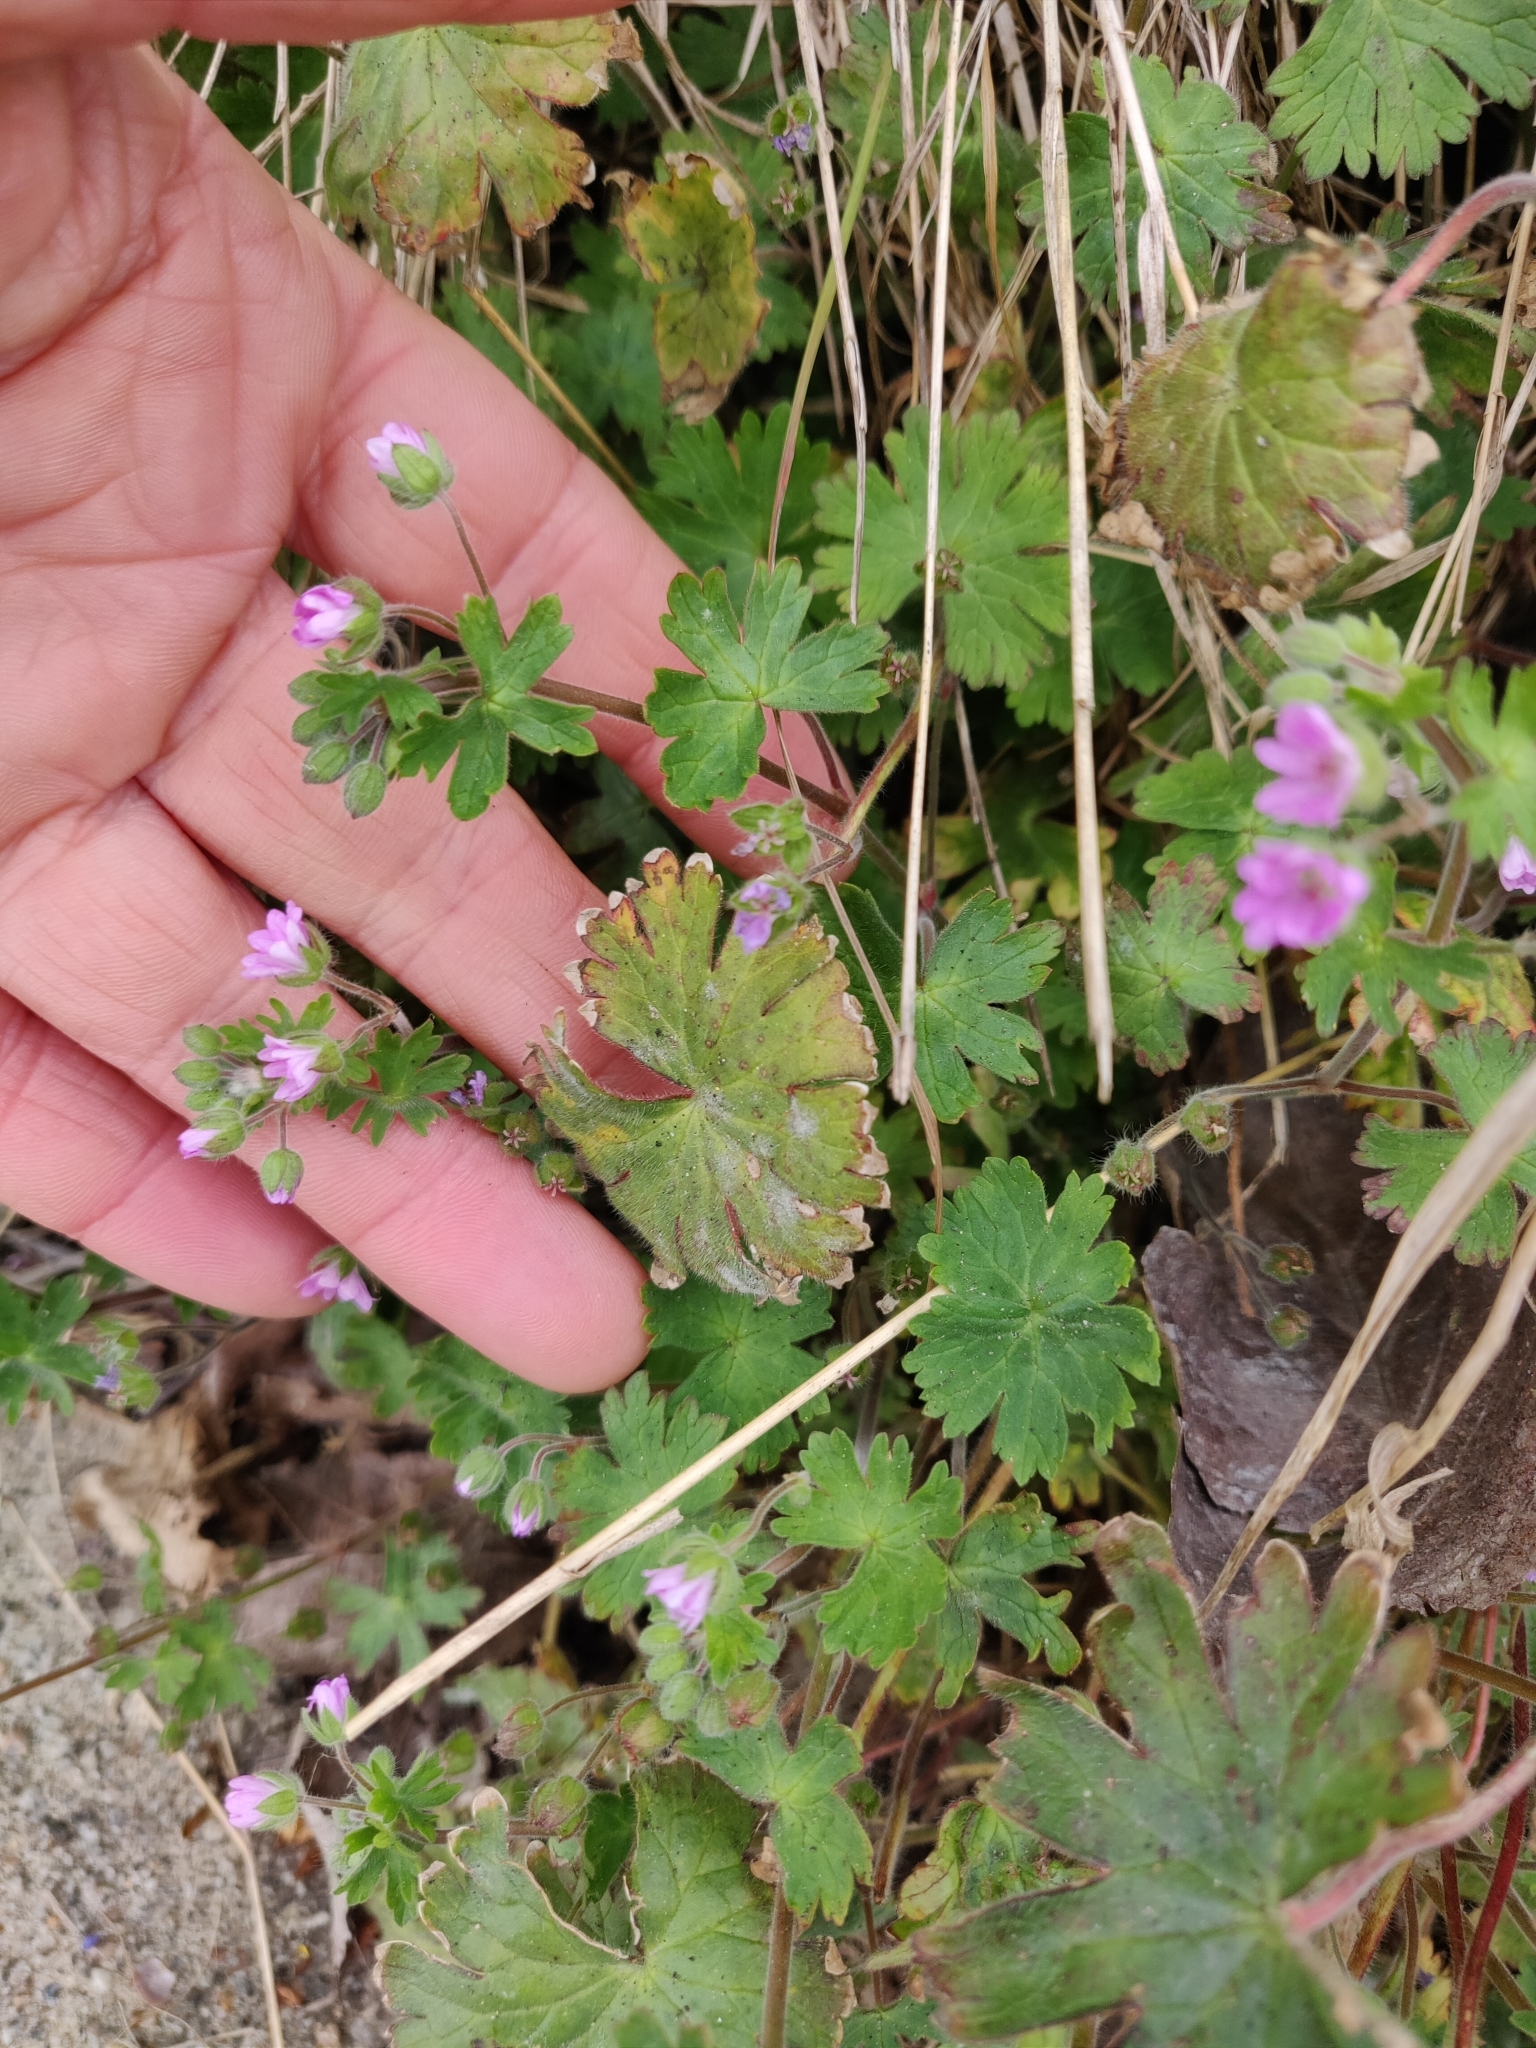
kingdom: Plantae
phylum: Tracheophyta
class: Magnoliopsida
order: Geraniales
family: Geraniaceae
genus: Geranium
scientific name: Geranium molle
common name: Dove's-foot crane's-bill
